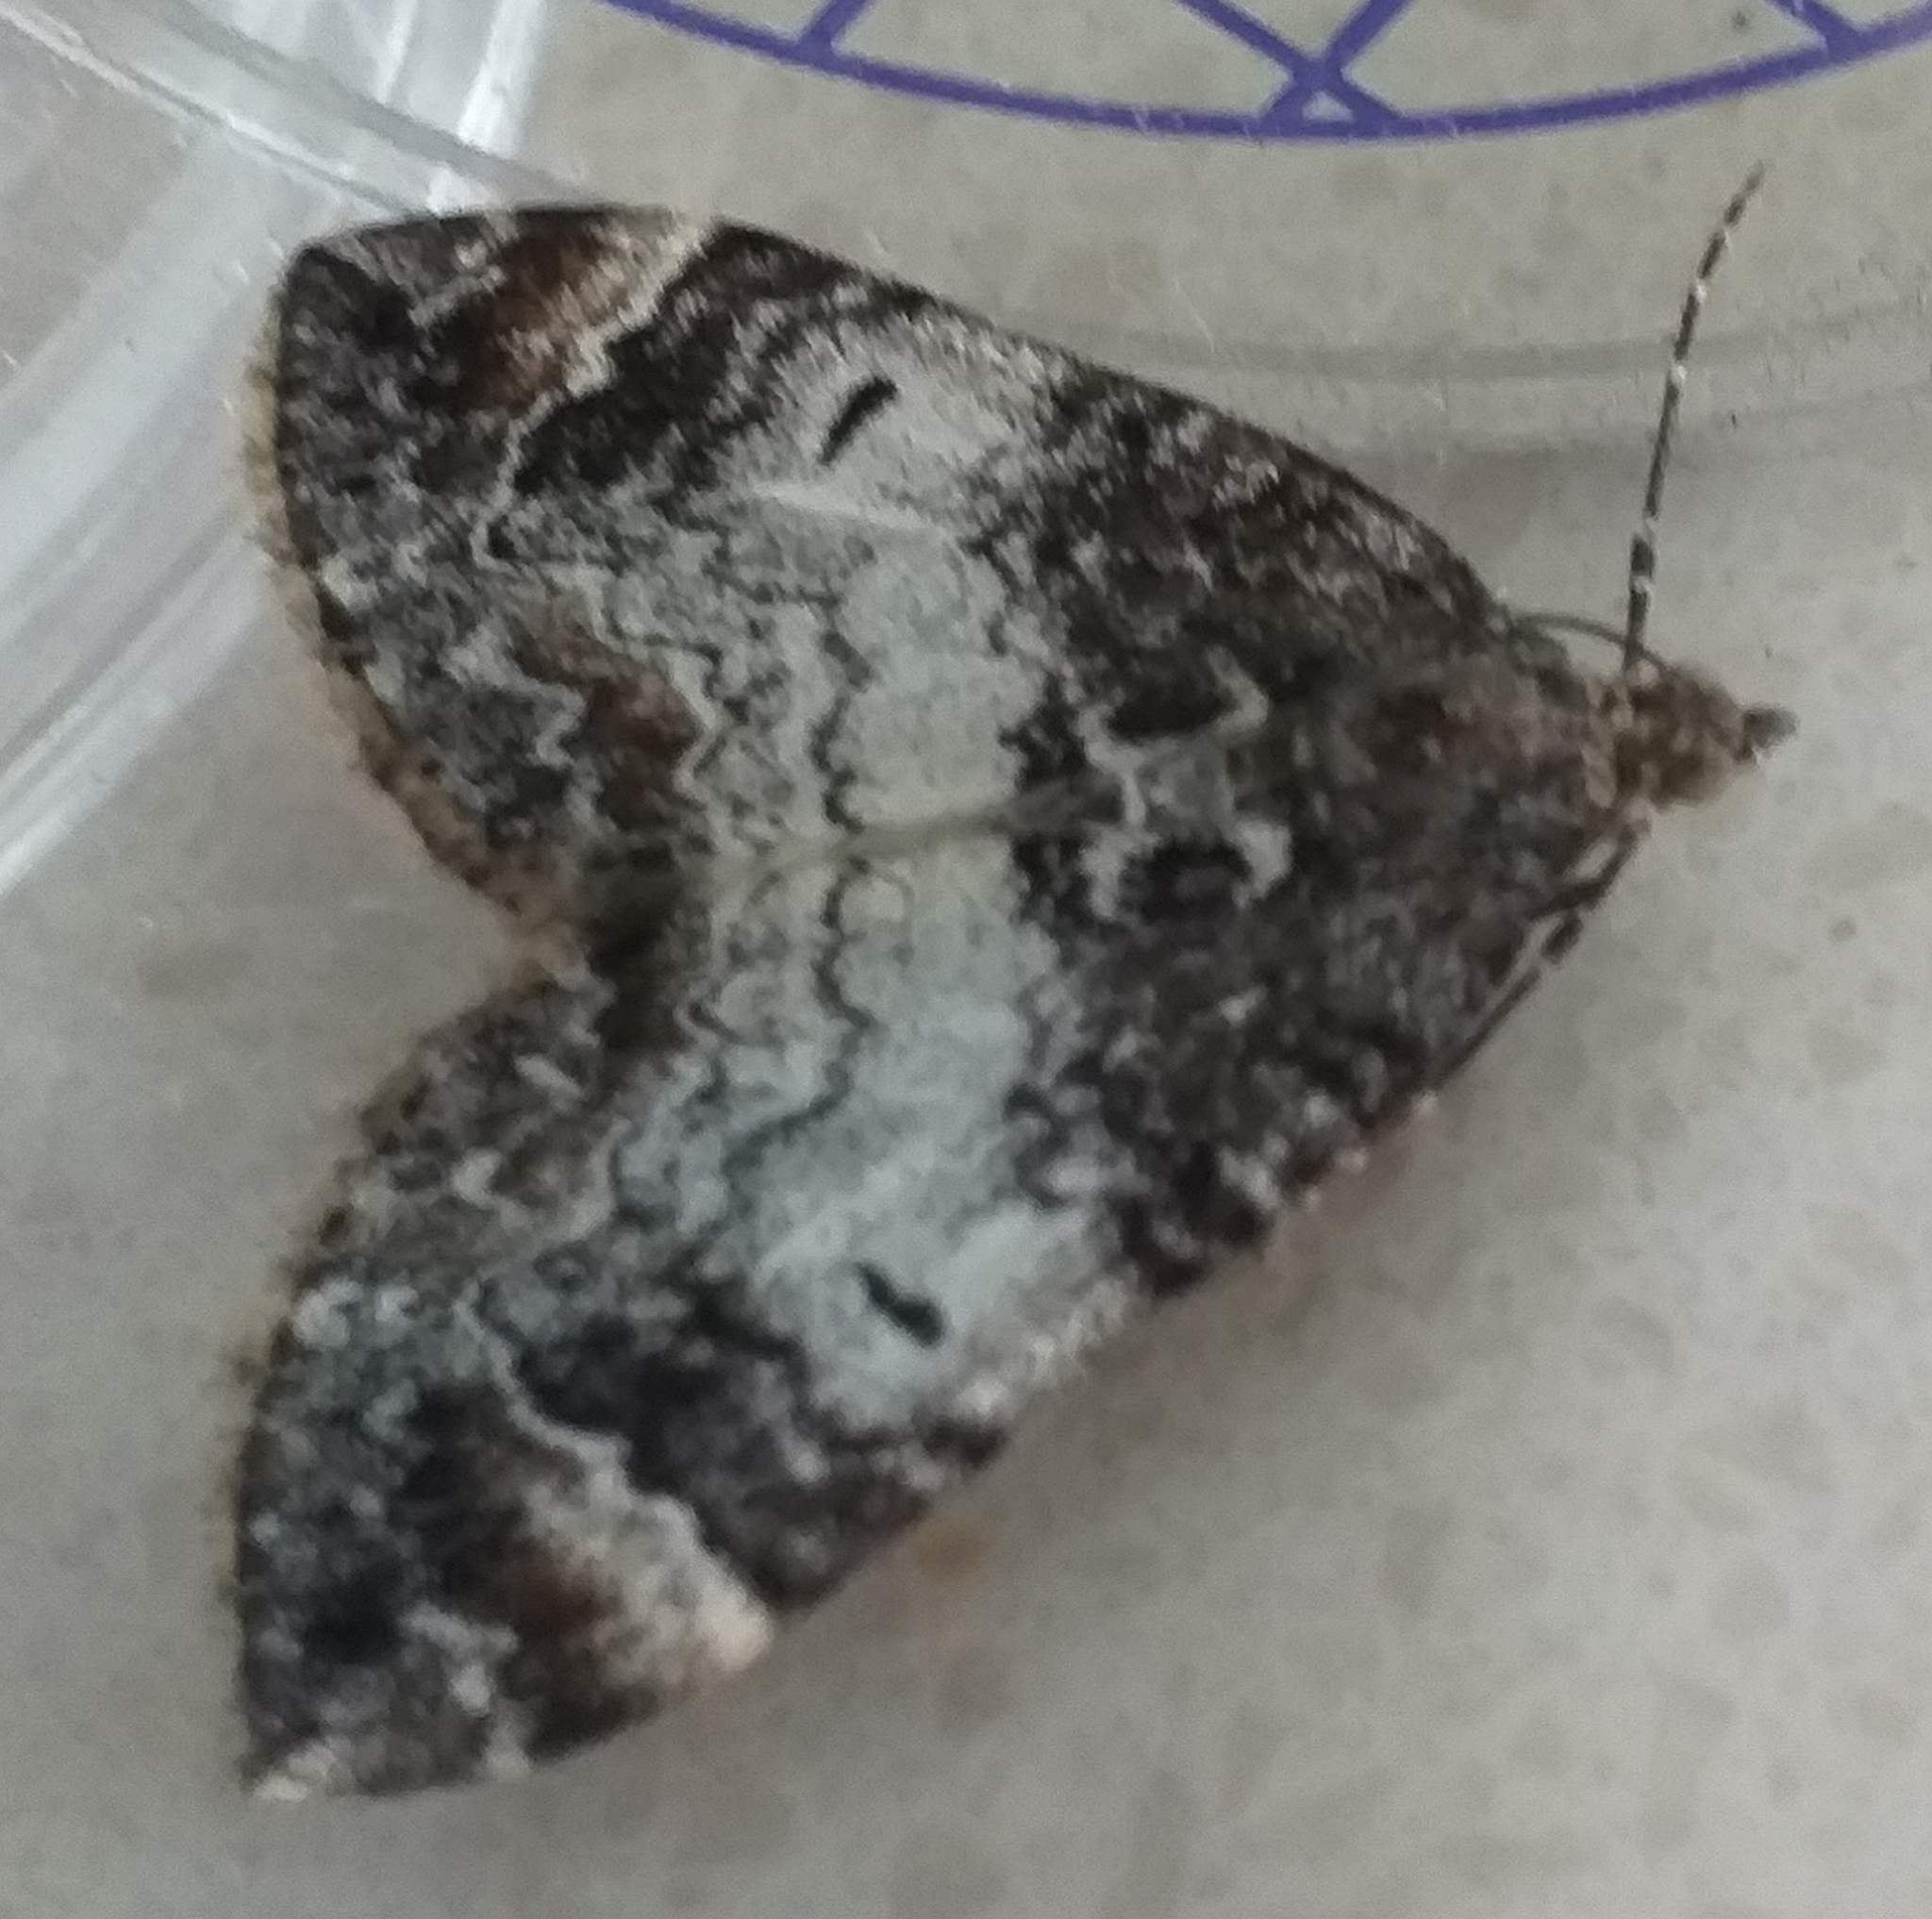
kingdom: Animalia
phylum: Arthropoda
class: Insecta
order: Lepidoptera
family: Geometridae
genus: Dysstroma
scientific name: Dysstroma truncata
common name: Common marbled carpet
